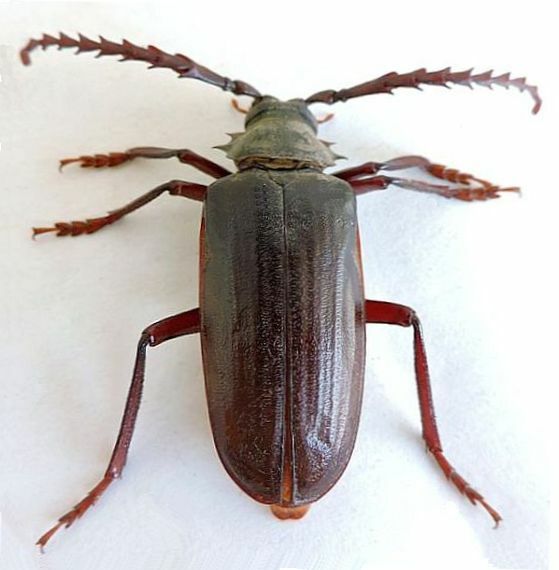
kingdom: Animalia
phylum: Arthropoda
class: Insecta
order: Coleoptera
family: Cerambycidae
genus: Prionus
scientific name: Prionus californicus
